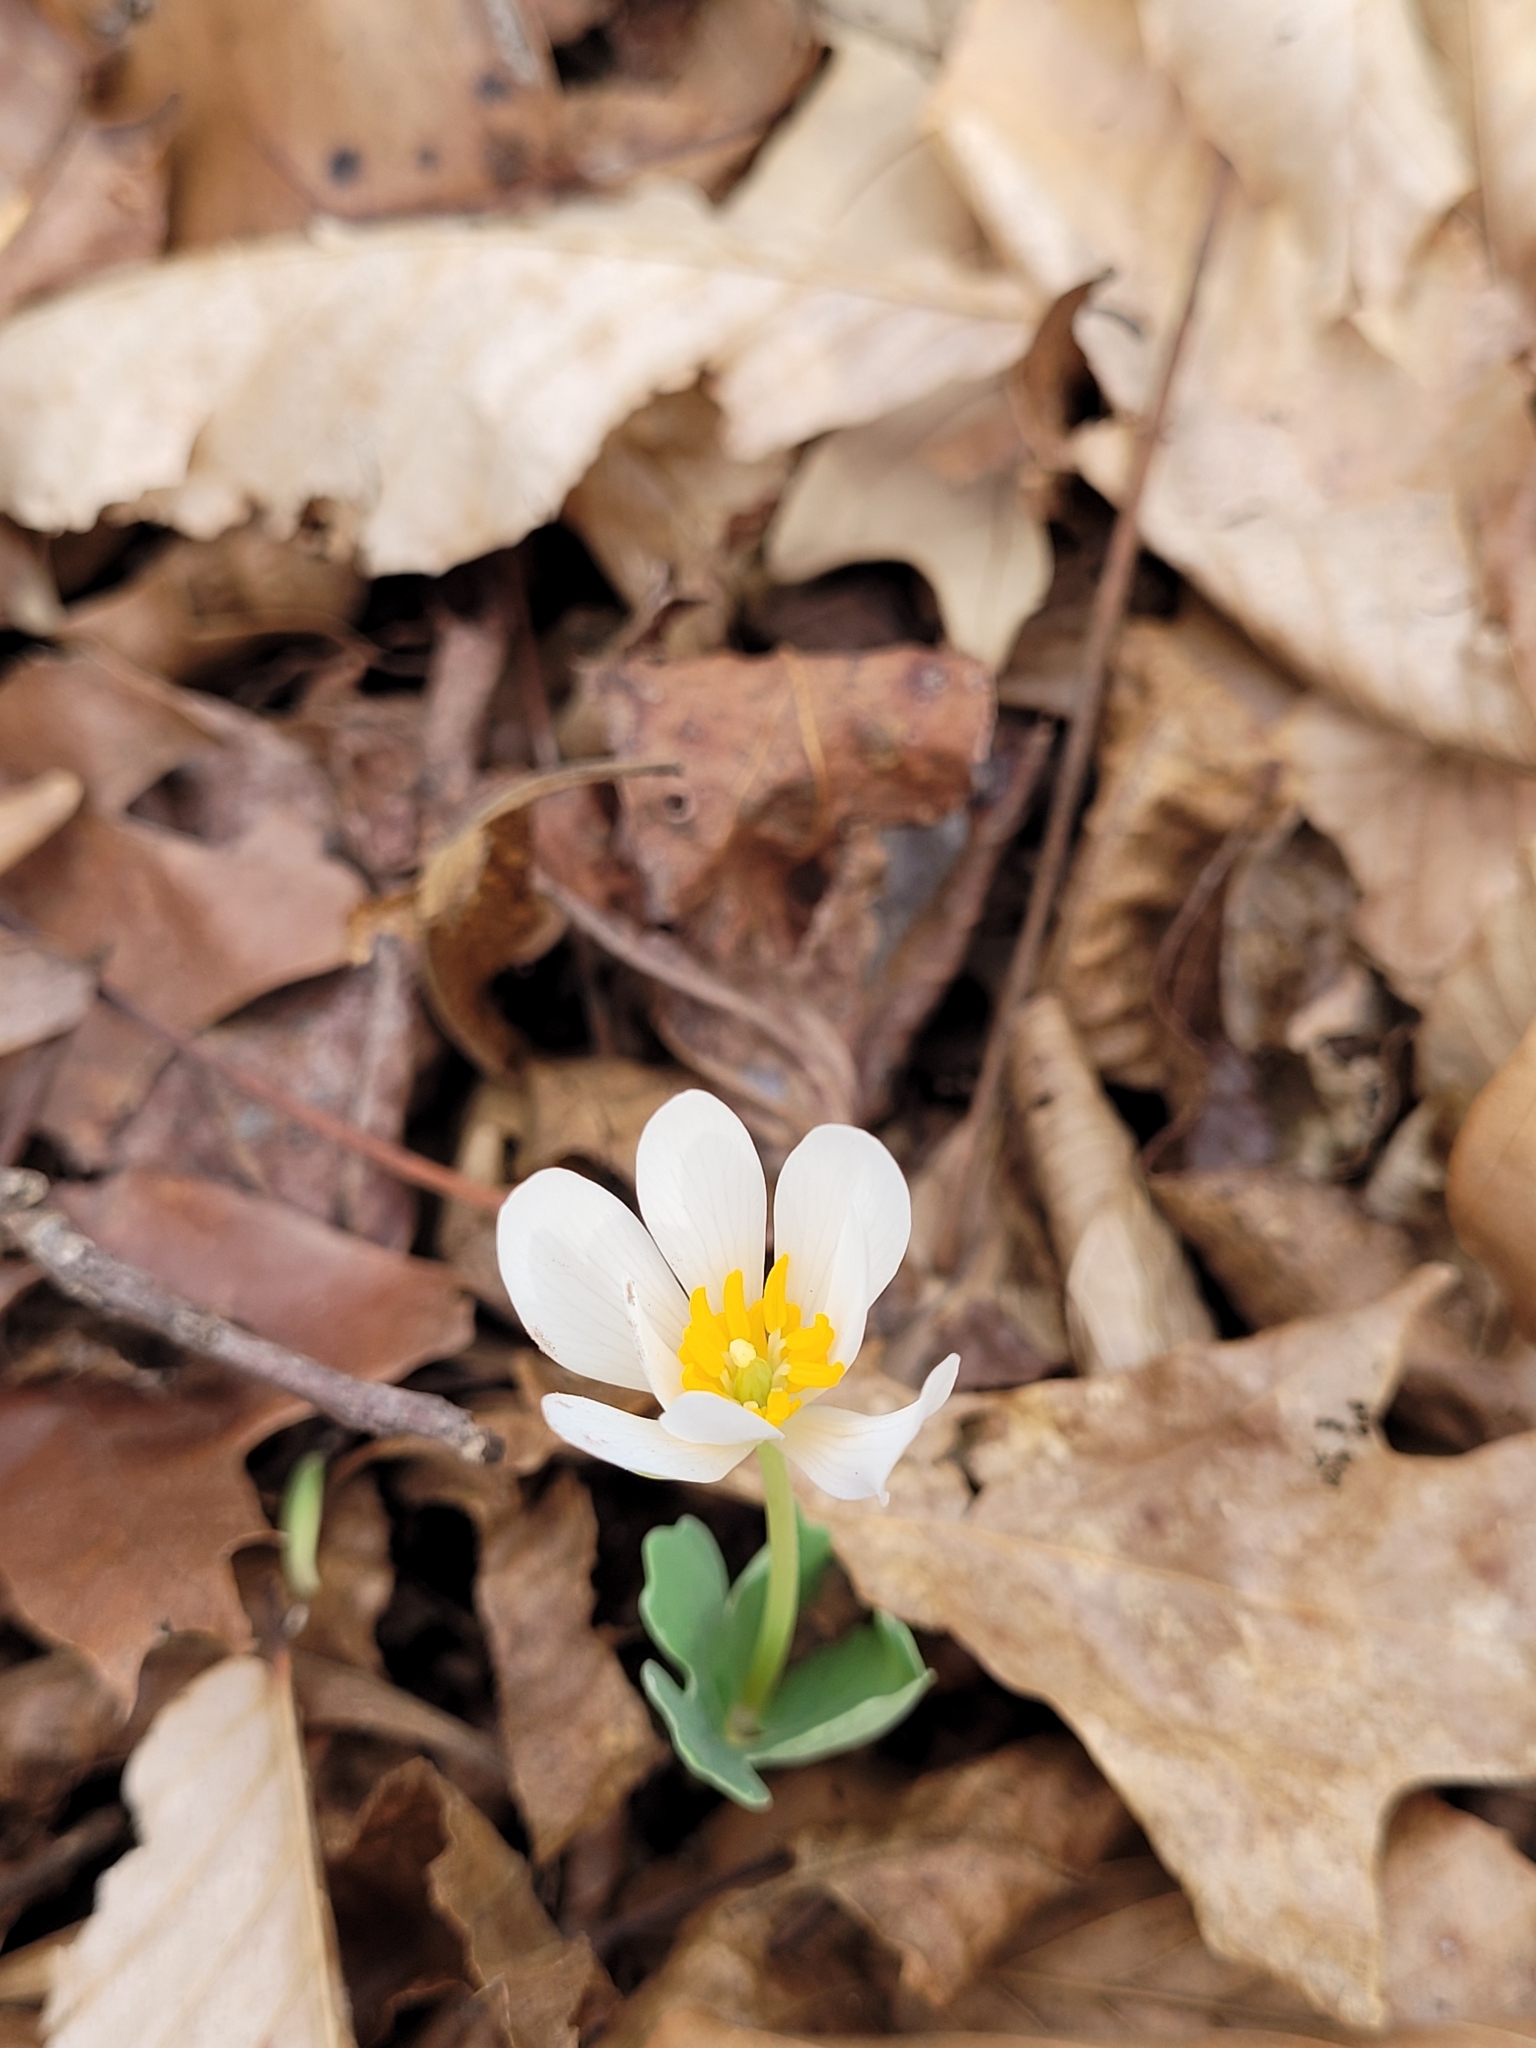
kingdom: Plantae
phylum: Tracheophyta
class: Magnoliopsida
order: Ranunculales
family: Papaveraceae
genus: Sanguinaria
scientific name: Sanguinaria canadensis
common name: Bloodroot
